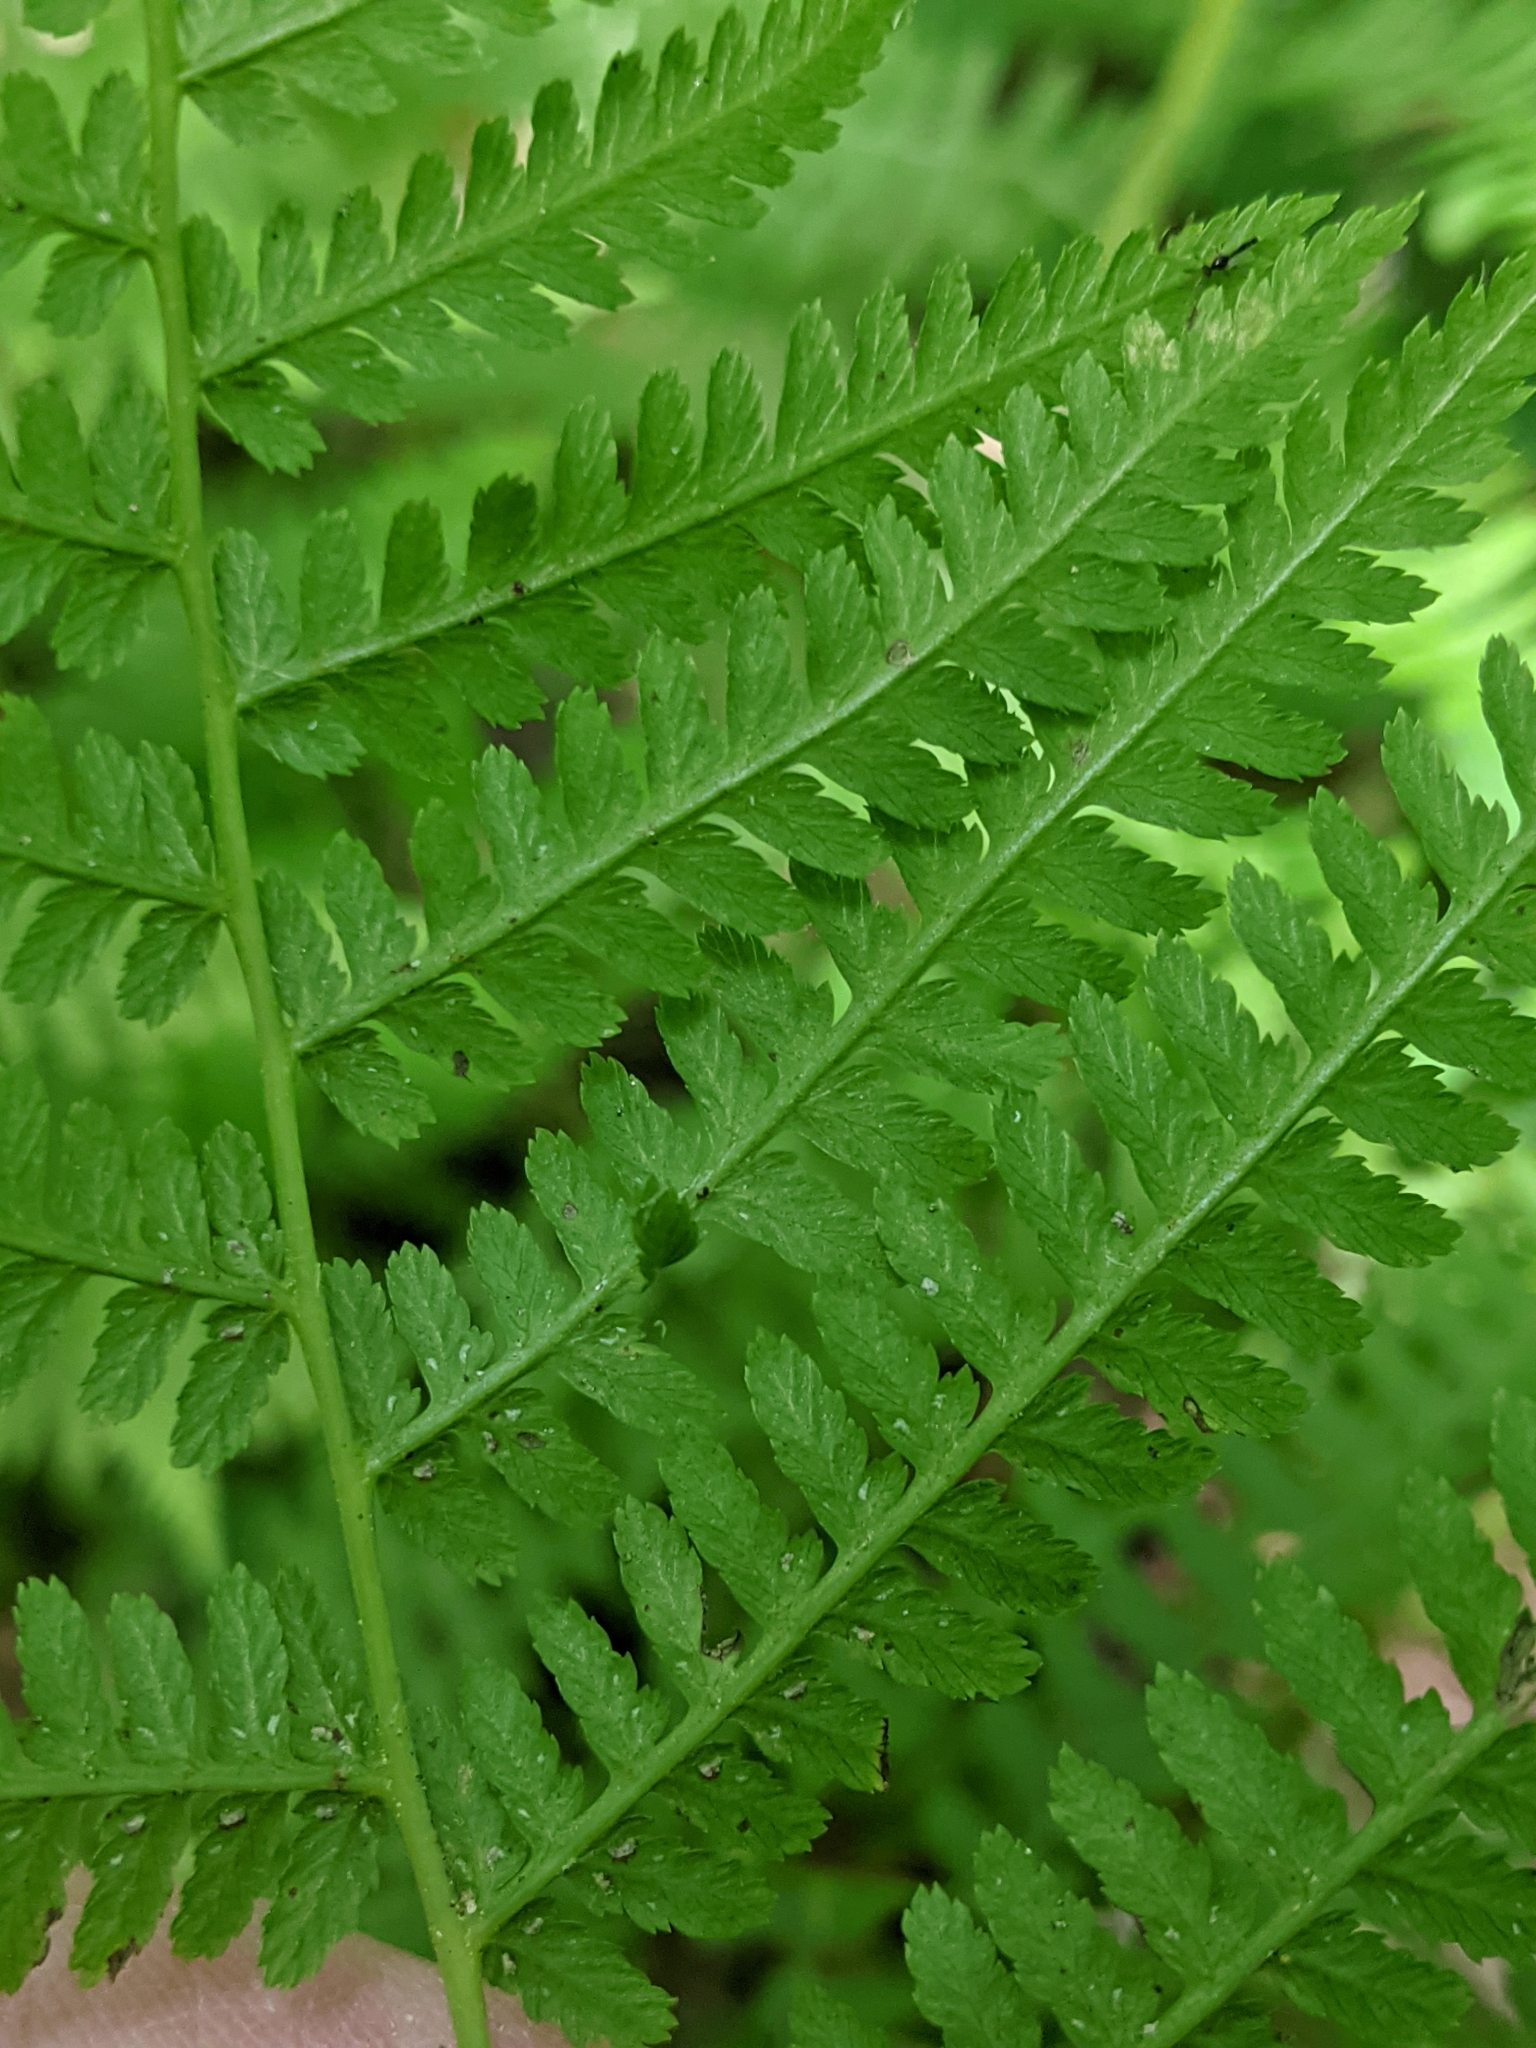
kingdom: Plantae
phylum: Tracheophyta
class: Polypodiopsida
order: Polypodiales
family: Athyriaceae
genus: Athyrium
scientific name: Athyrium angustum
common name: Northern lady fern
